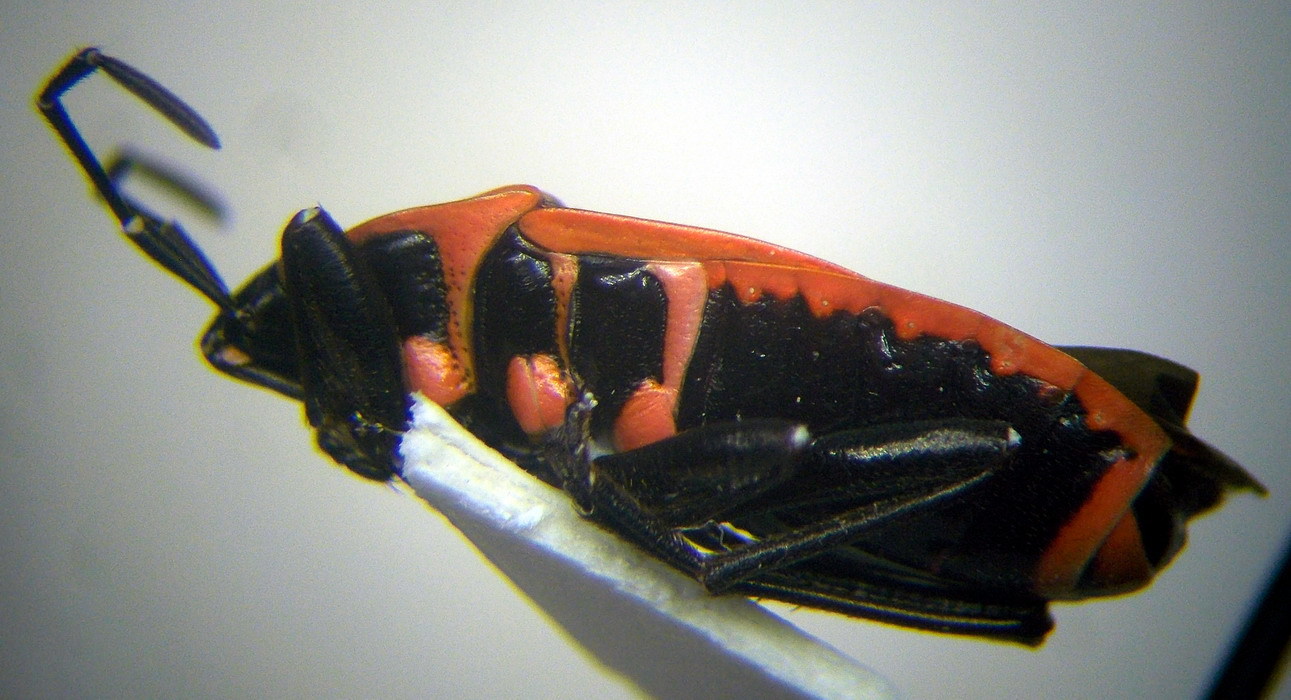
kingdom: Animalia
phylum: Arthropoda
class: Insecta
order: Hemiptera
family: Pyrrhocoridae
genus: Pyrrhocoris
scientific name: Pyrrhocoris apterus
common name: Firebug
